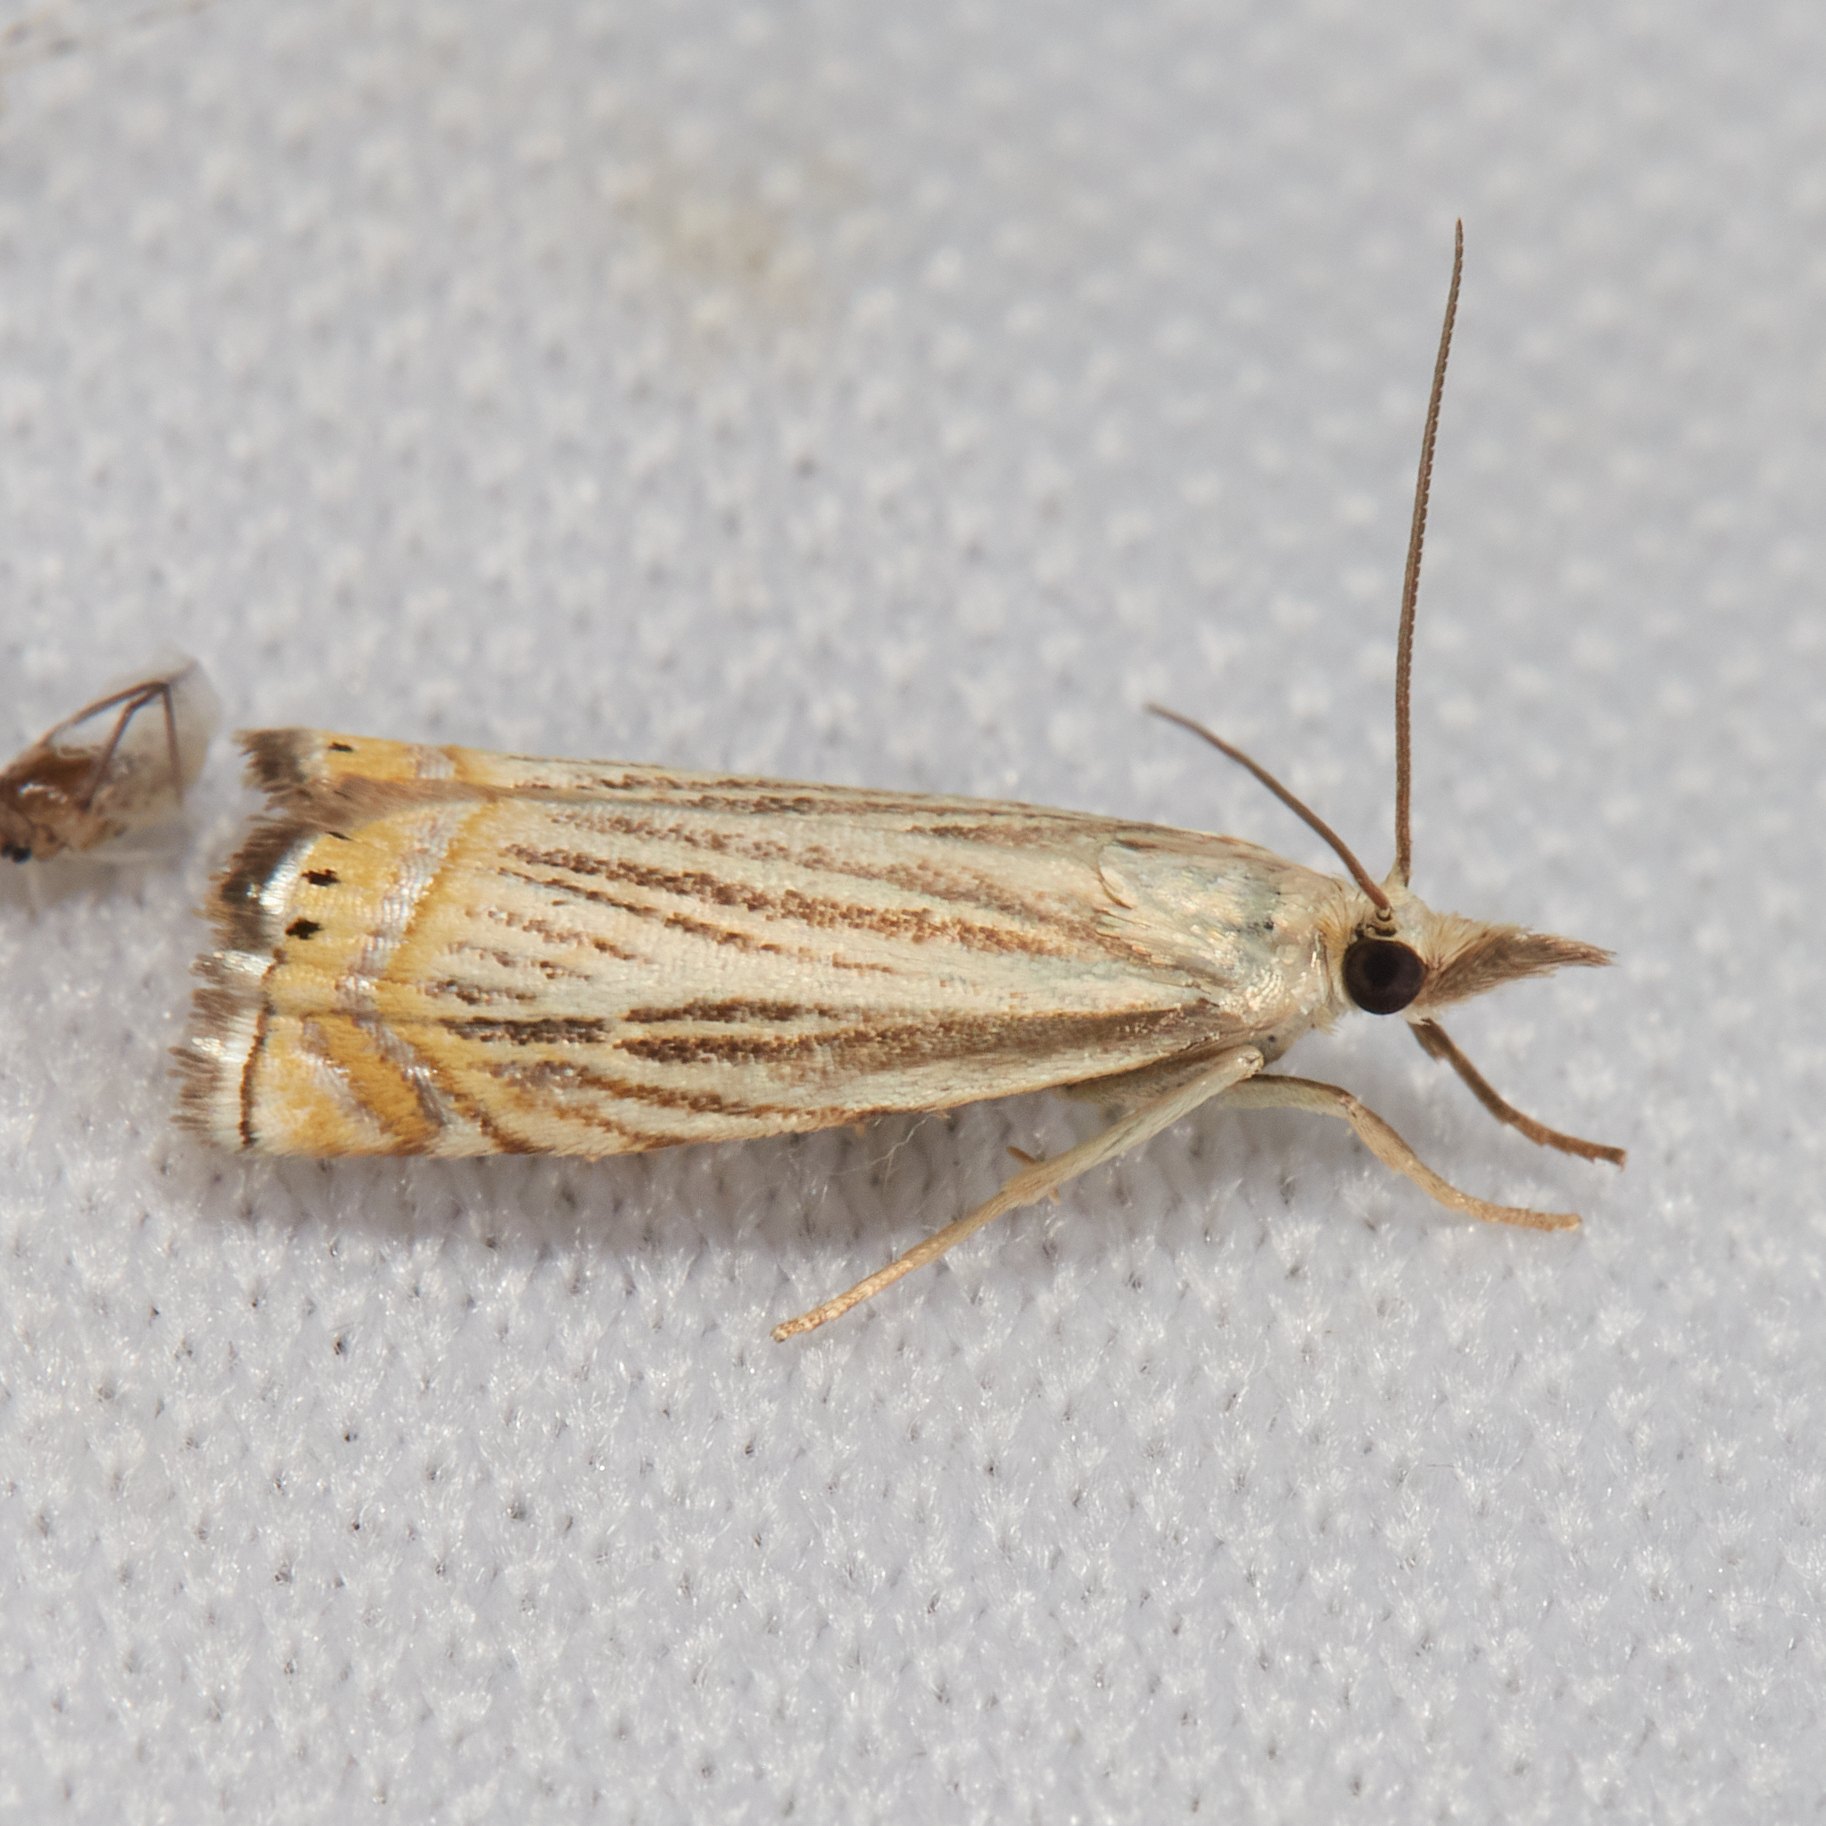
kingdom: Animalia
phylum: Arthropoda
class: Insecta
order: Lepidoptera
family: Crambidae
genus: Chrysoteuchia
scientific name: Chrysoteuchia topiarius
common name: Topiary grass-veneer
